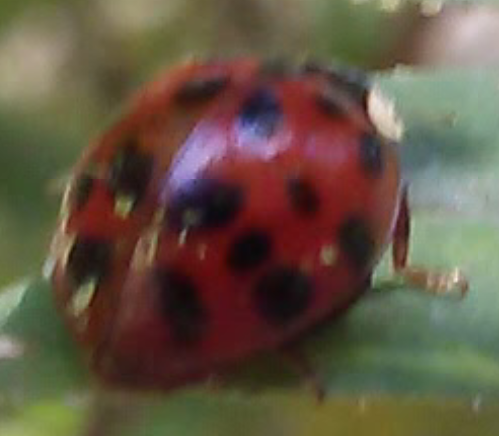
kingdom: Fungi
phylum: Ascomycota
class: Laboulbeniomycetes
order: Laboulbeniales
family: Laboulbeniaceae
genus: Hesperomyces
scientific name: Hesperomyces harmoniae
